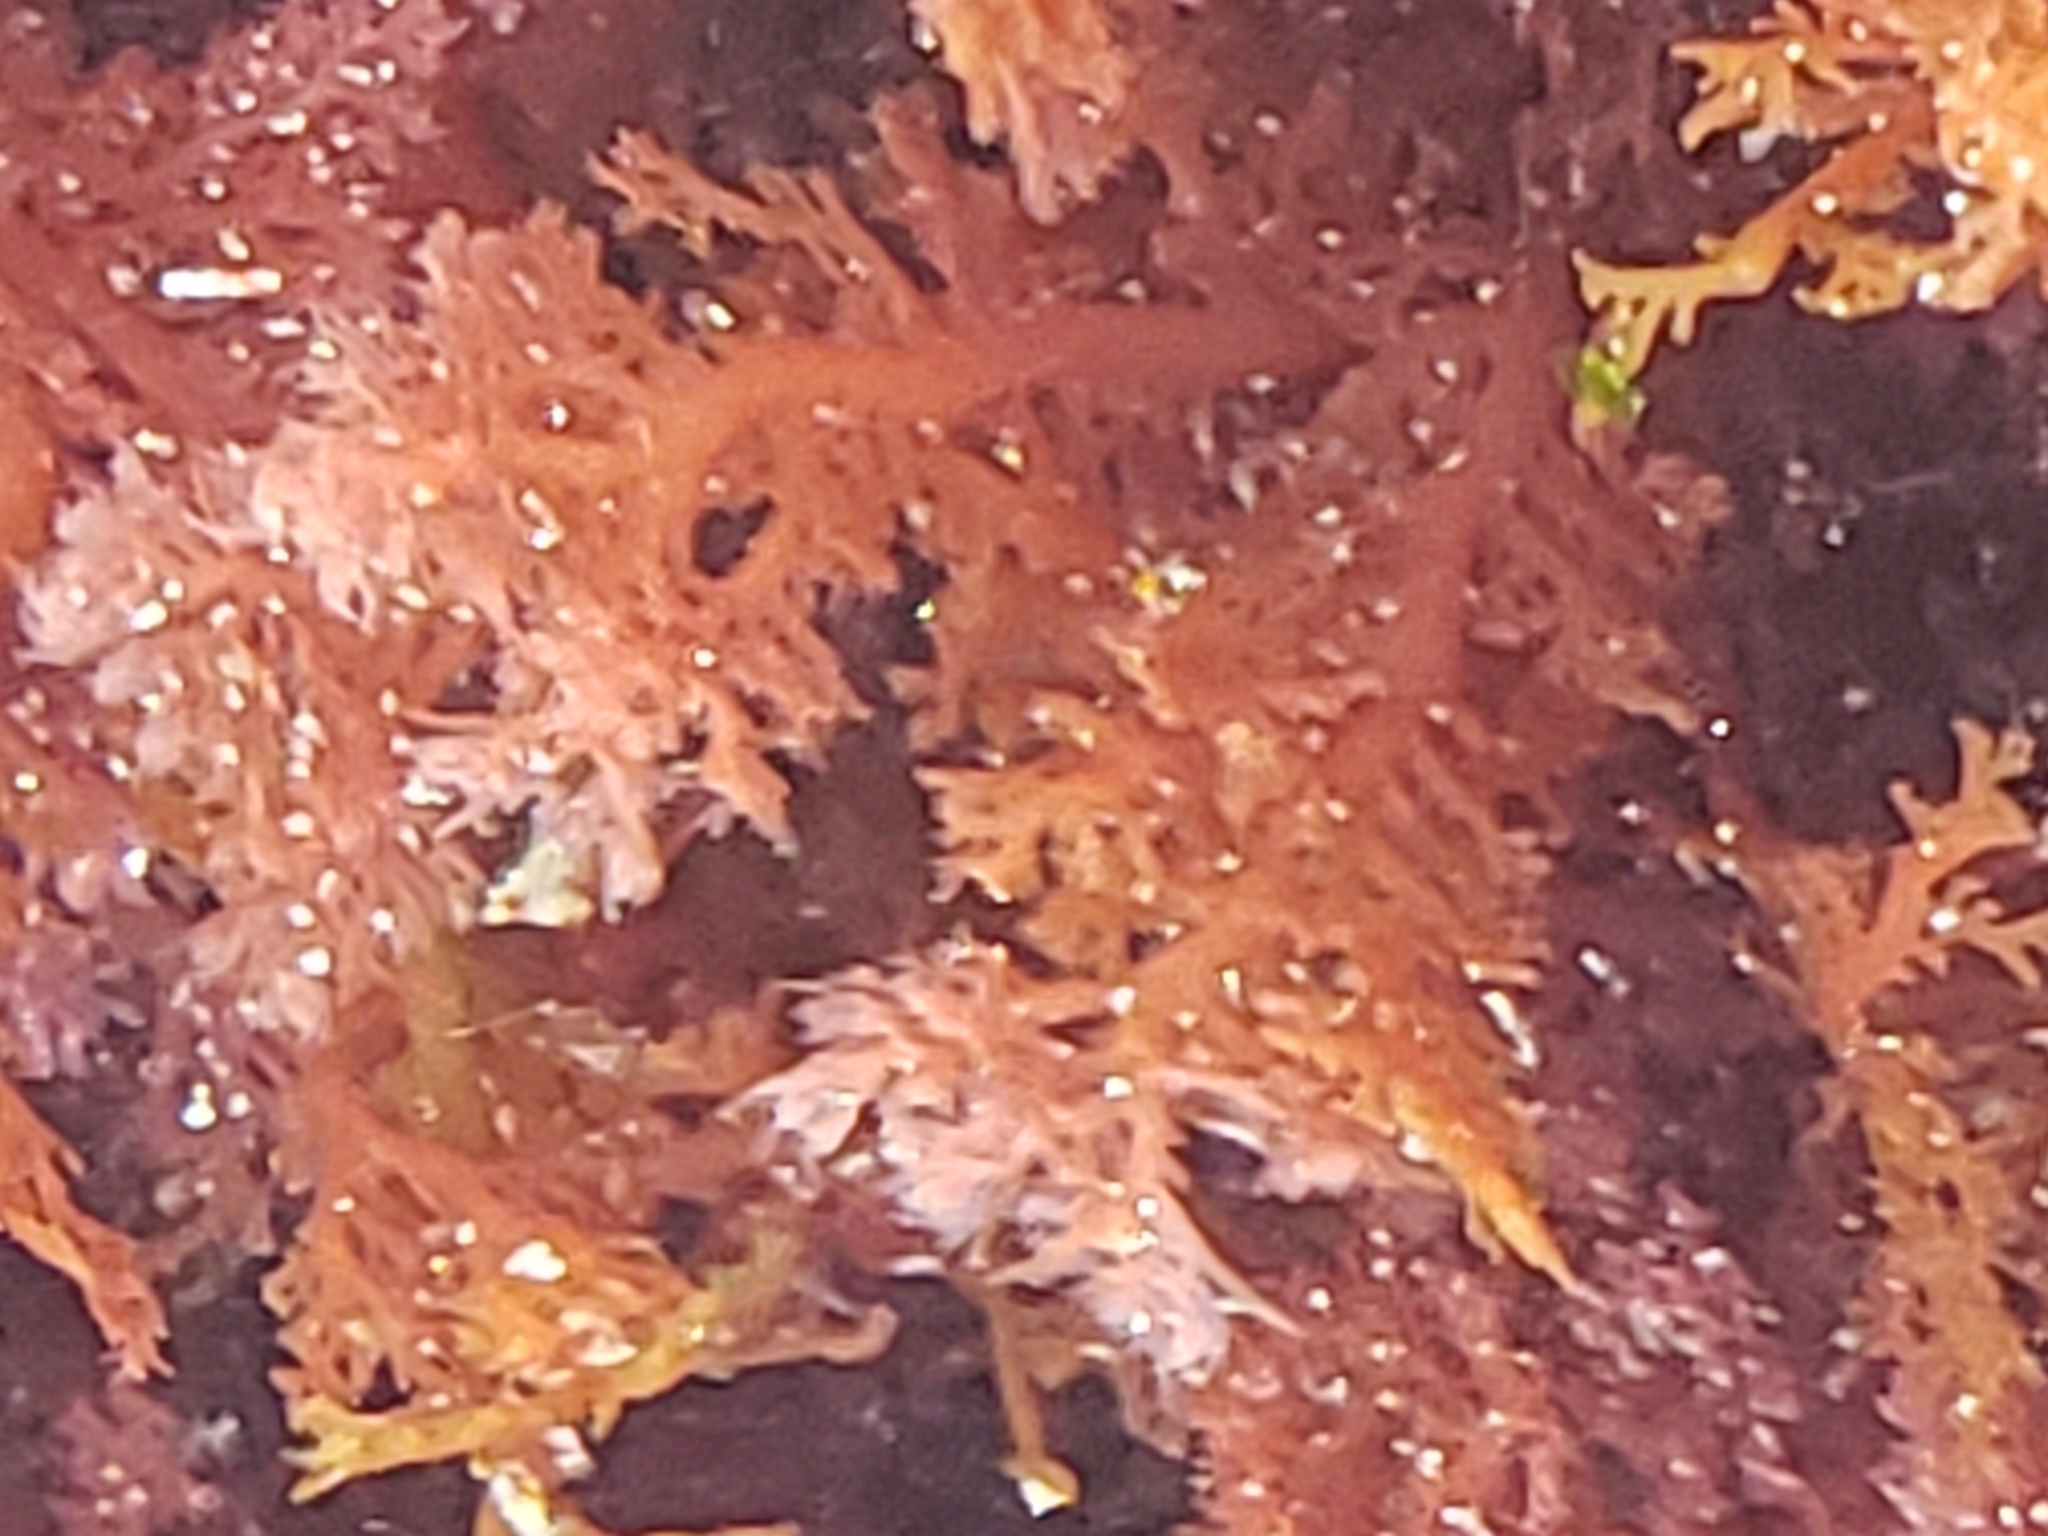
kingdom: Plantae
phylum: Rhodophyta
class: Florideophyceae
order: Plocamiales
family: Plocamiaceae
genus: Plocamium
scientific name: Plocamium cartilagineum
